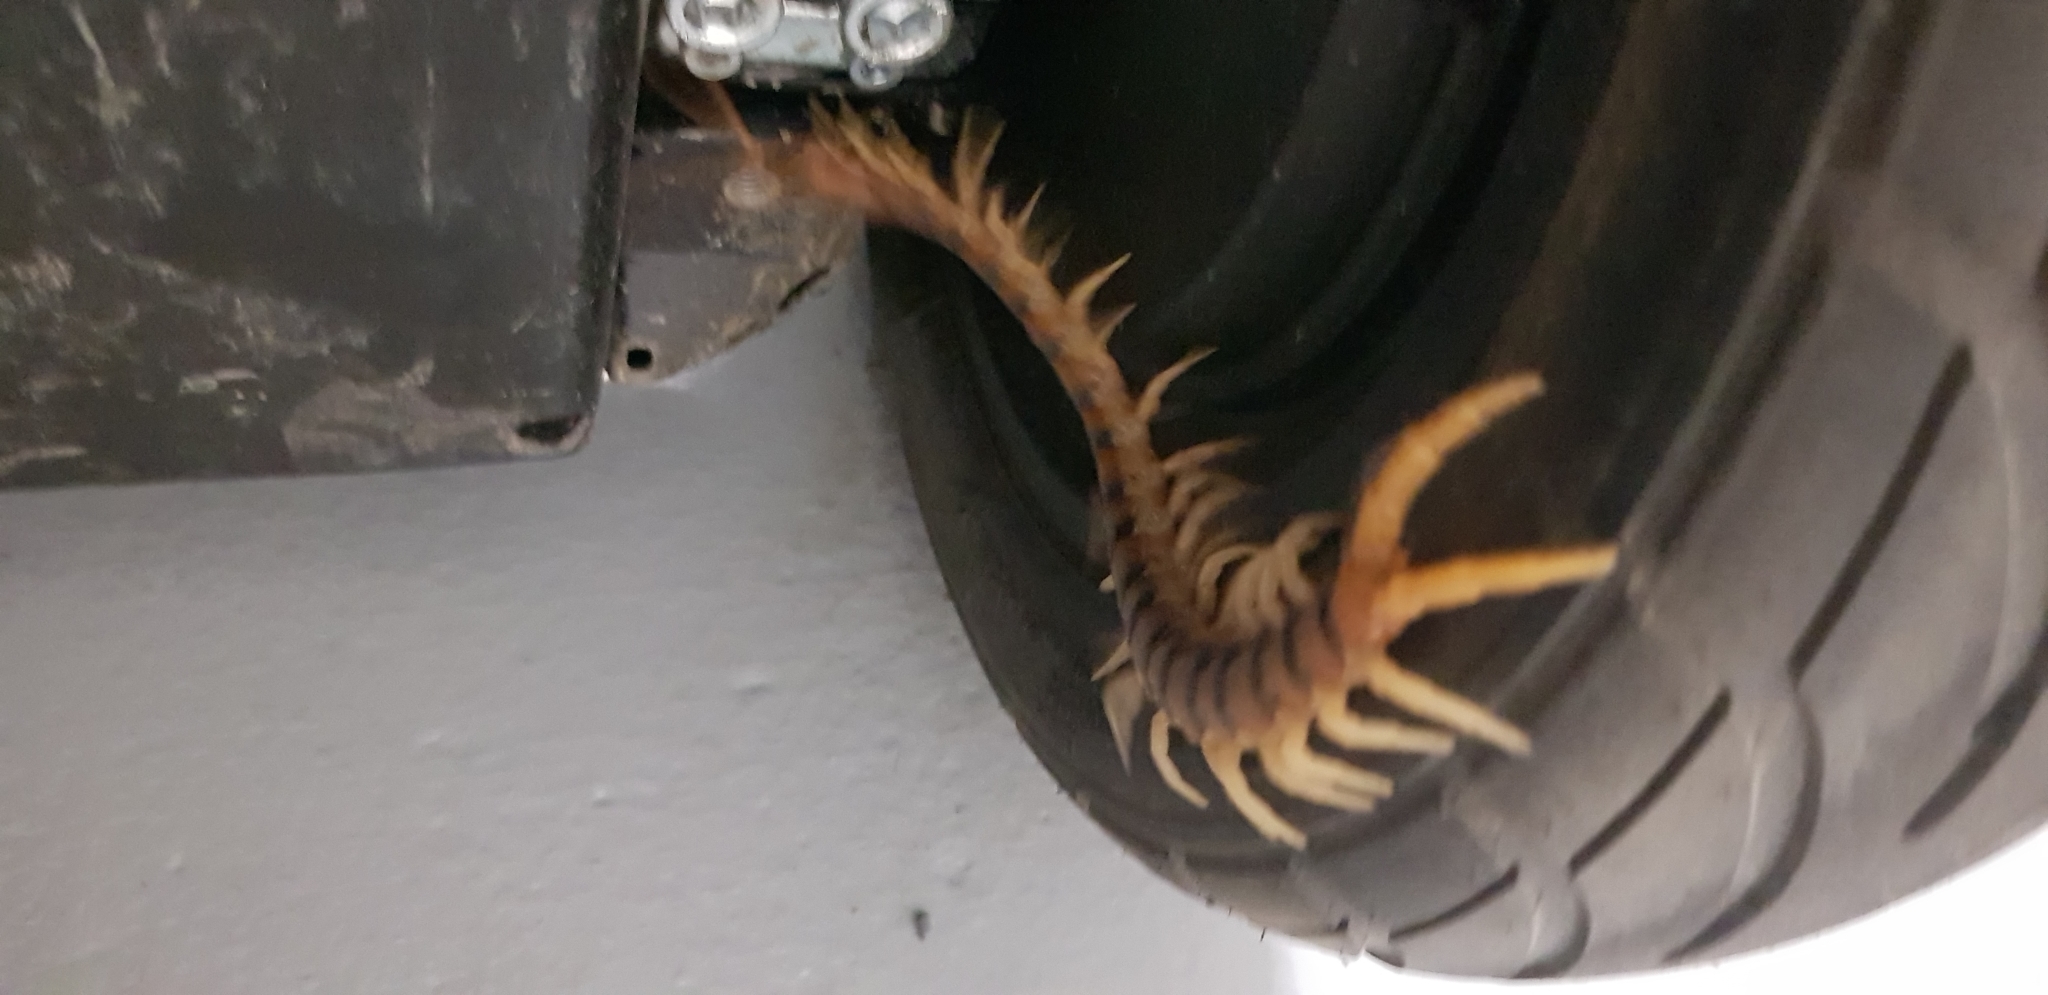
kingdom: Animalia
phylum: Arthropoda
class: Chilopoda
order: Scolopendromorpha
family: Scolopendridae
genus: Ethmostigmus
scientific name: Ethmostigmus rubripes
